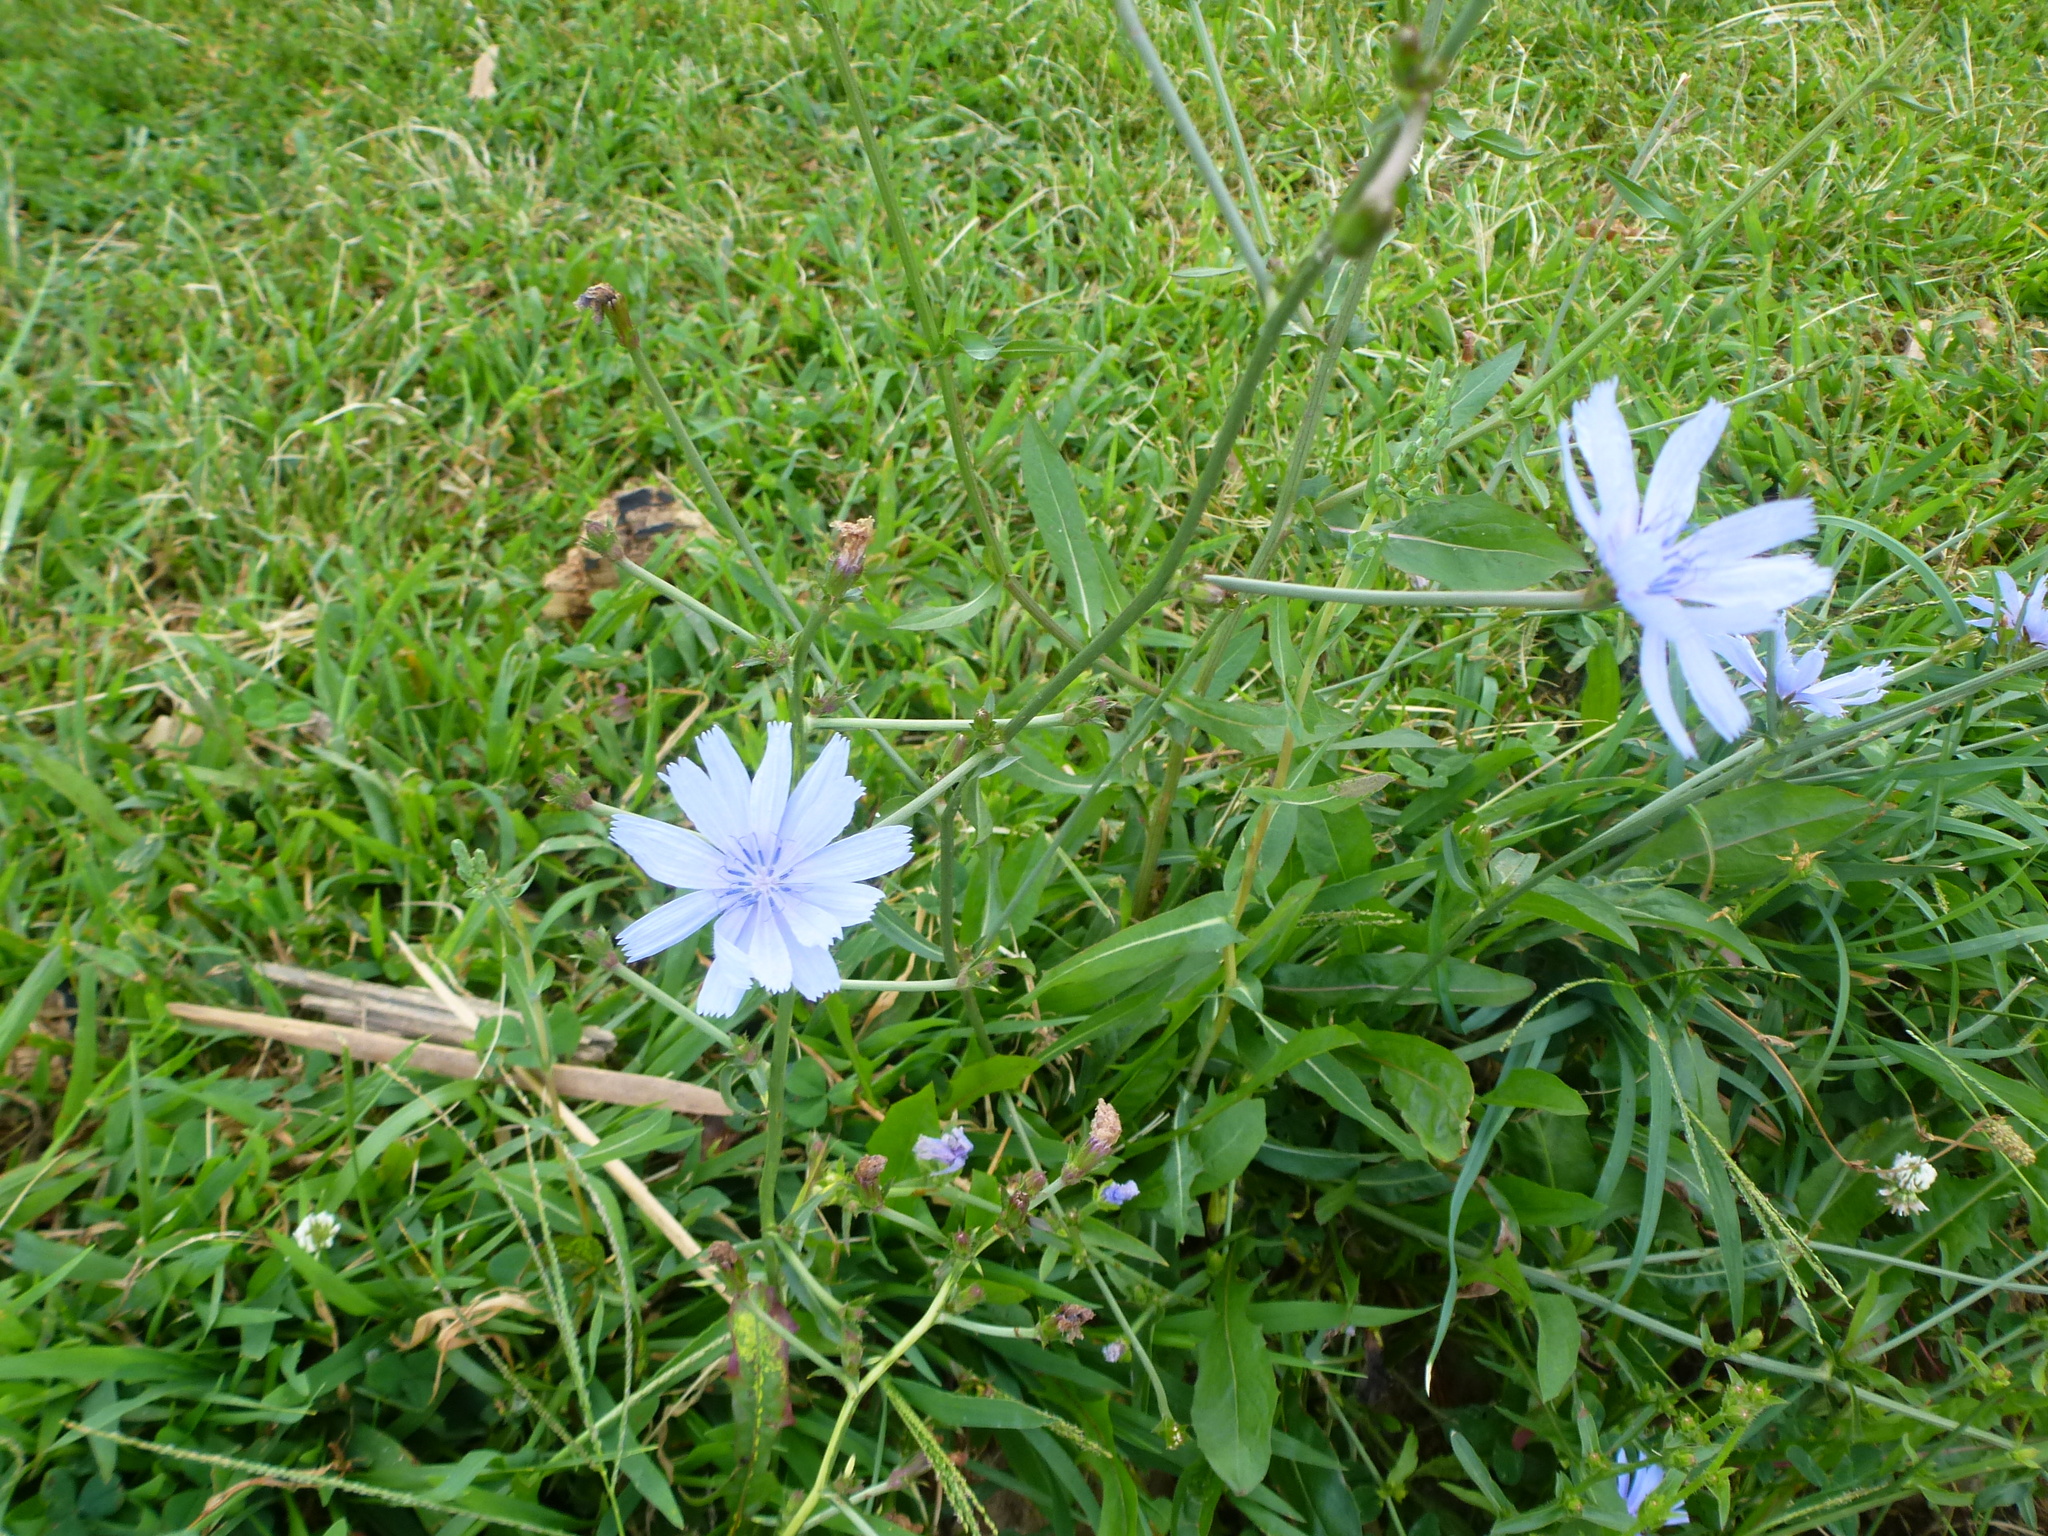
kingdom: Plantae
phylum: Tracheophyta
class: Magnoliopsida
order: Asterales
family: Asteraceae
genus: Cichorium
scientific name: Cichorium intybus
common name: Chicory
